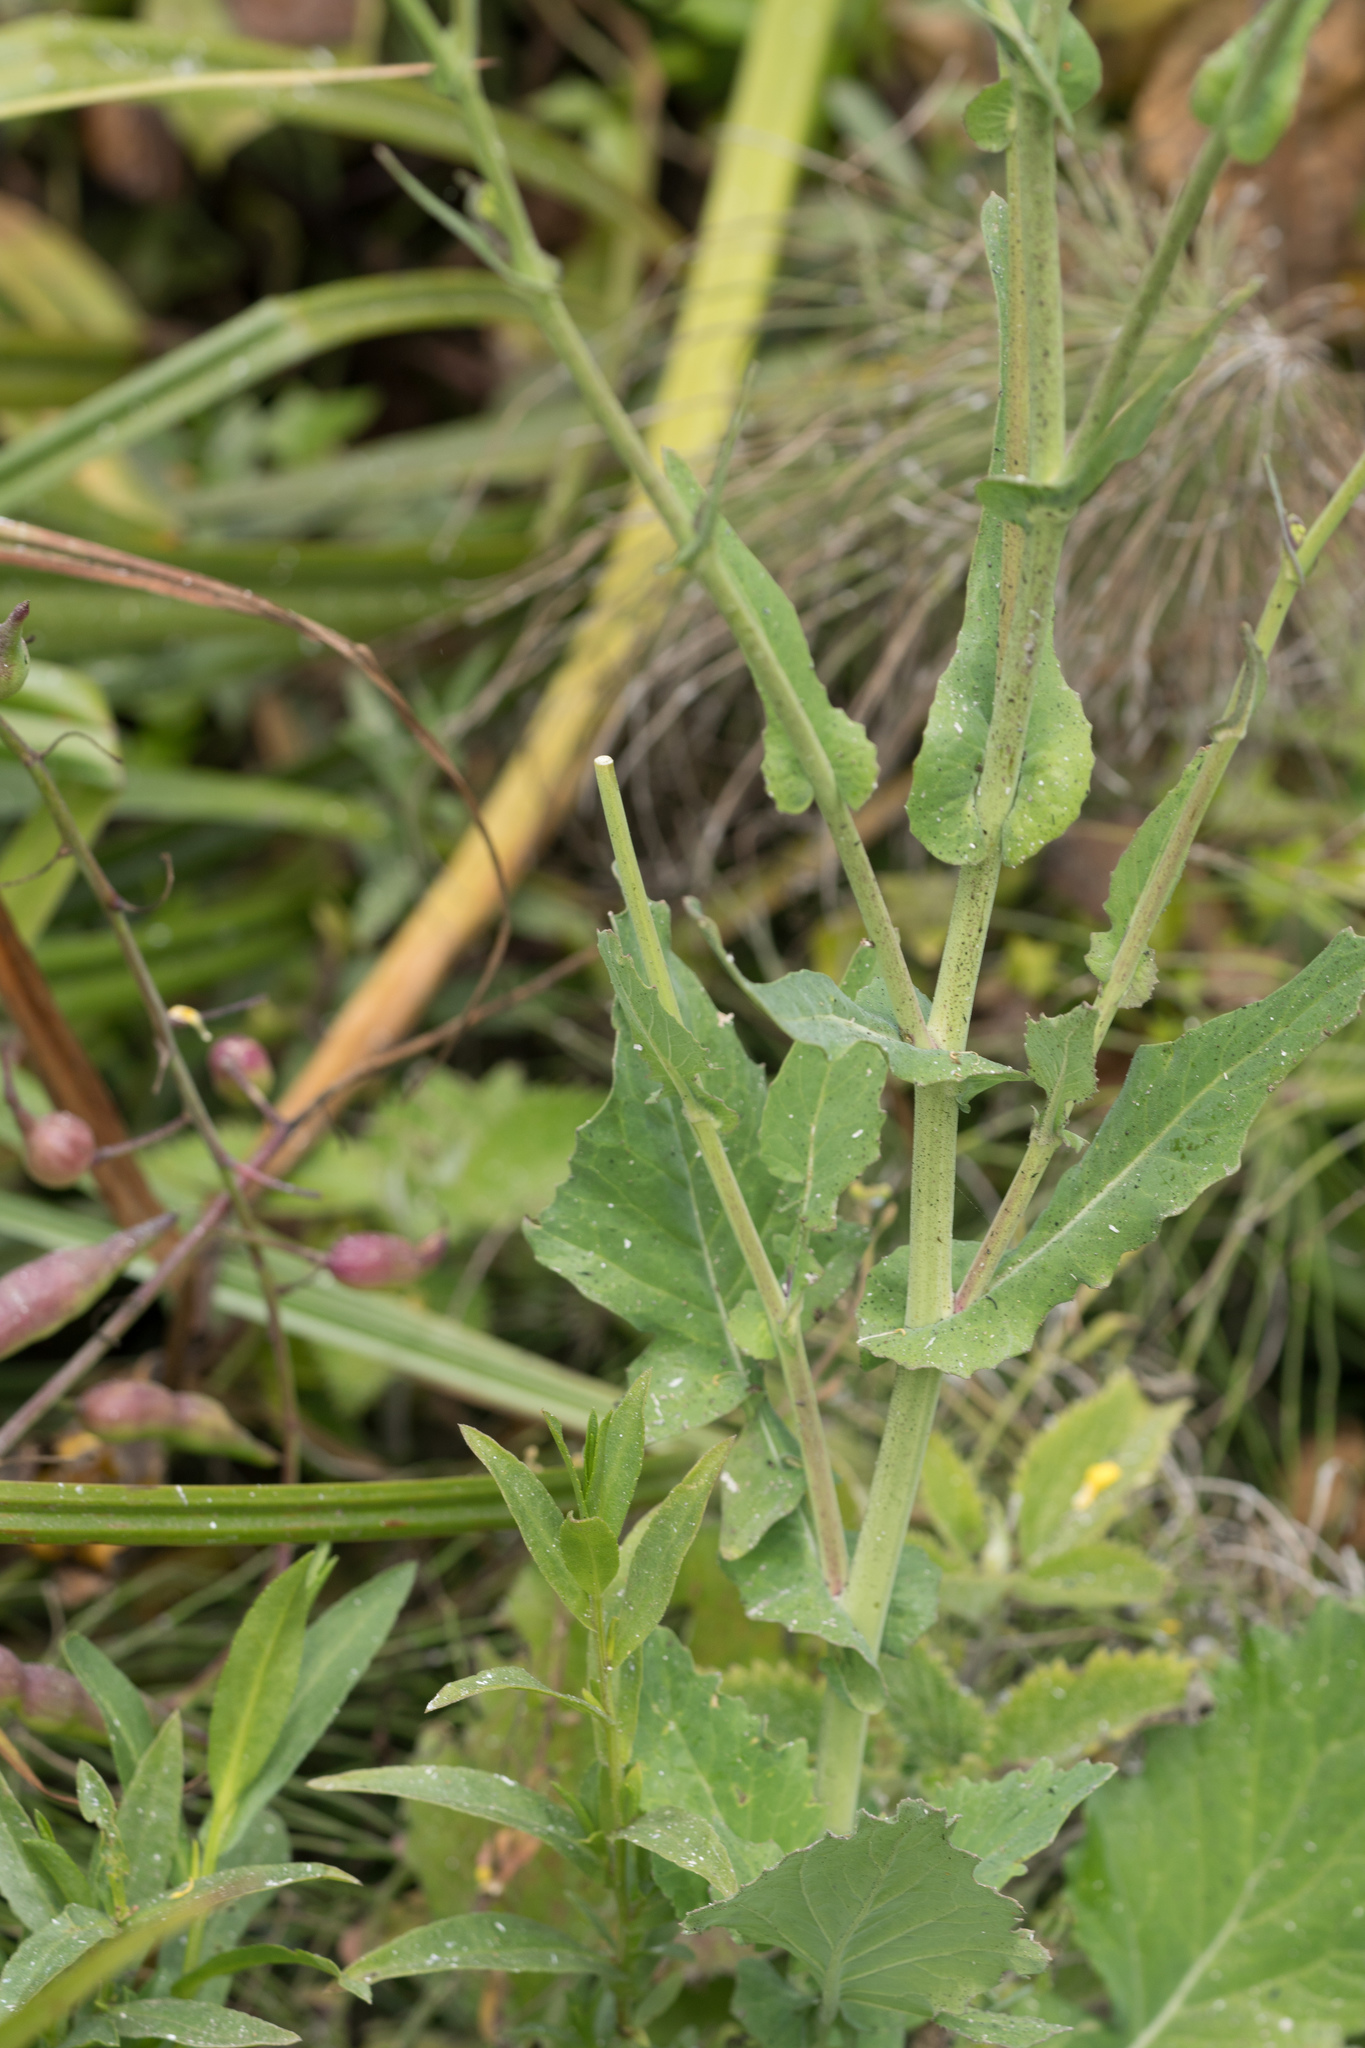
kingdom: Plantae
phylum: Tracheophyta
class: Magnoliopsida
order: Brassicales
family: Brassicaceae
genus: Brassica
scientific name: Brassica rapa
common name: Field mustard
